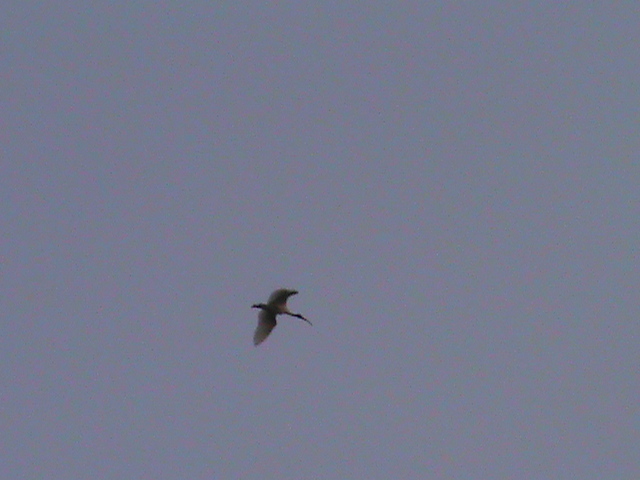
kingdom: Animalia
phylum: Chordata
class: Aves
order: Pelecaniformes
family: Threskiornithidae
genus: Threskiornis
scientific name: Threskiornis melanocephalus
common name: Black-headed ibis
